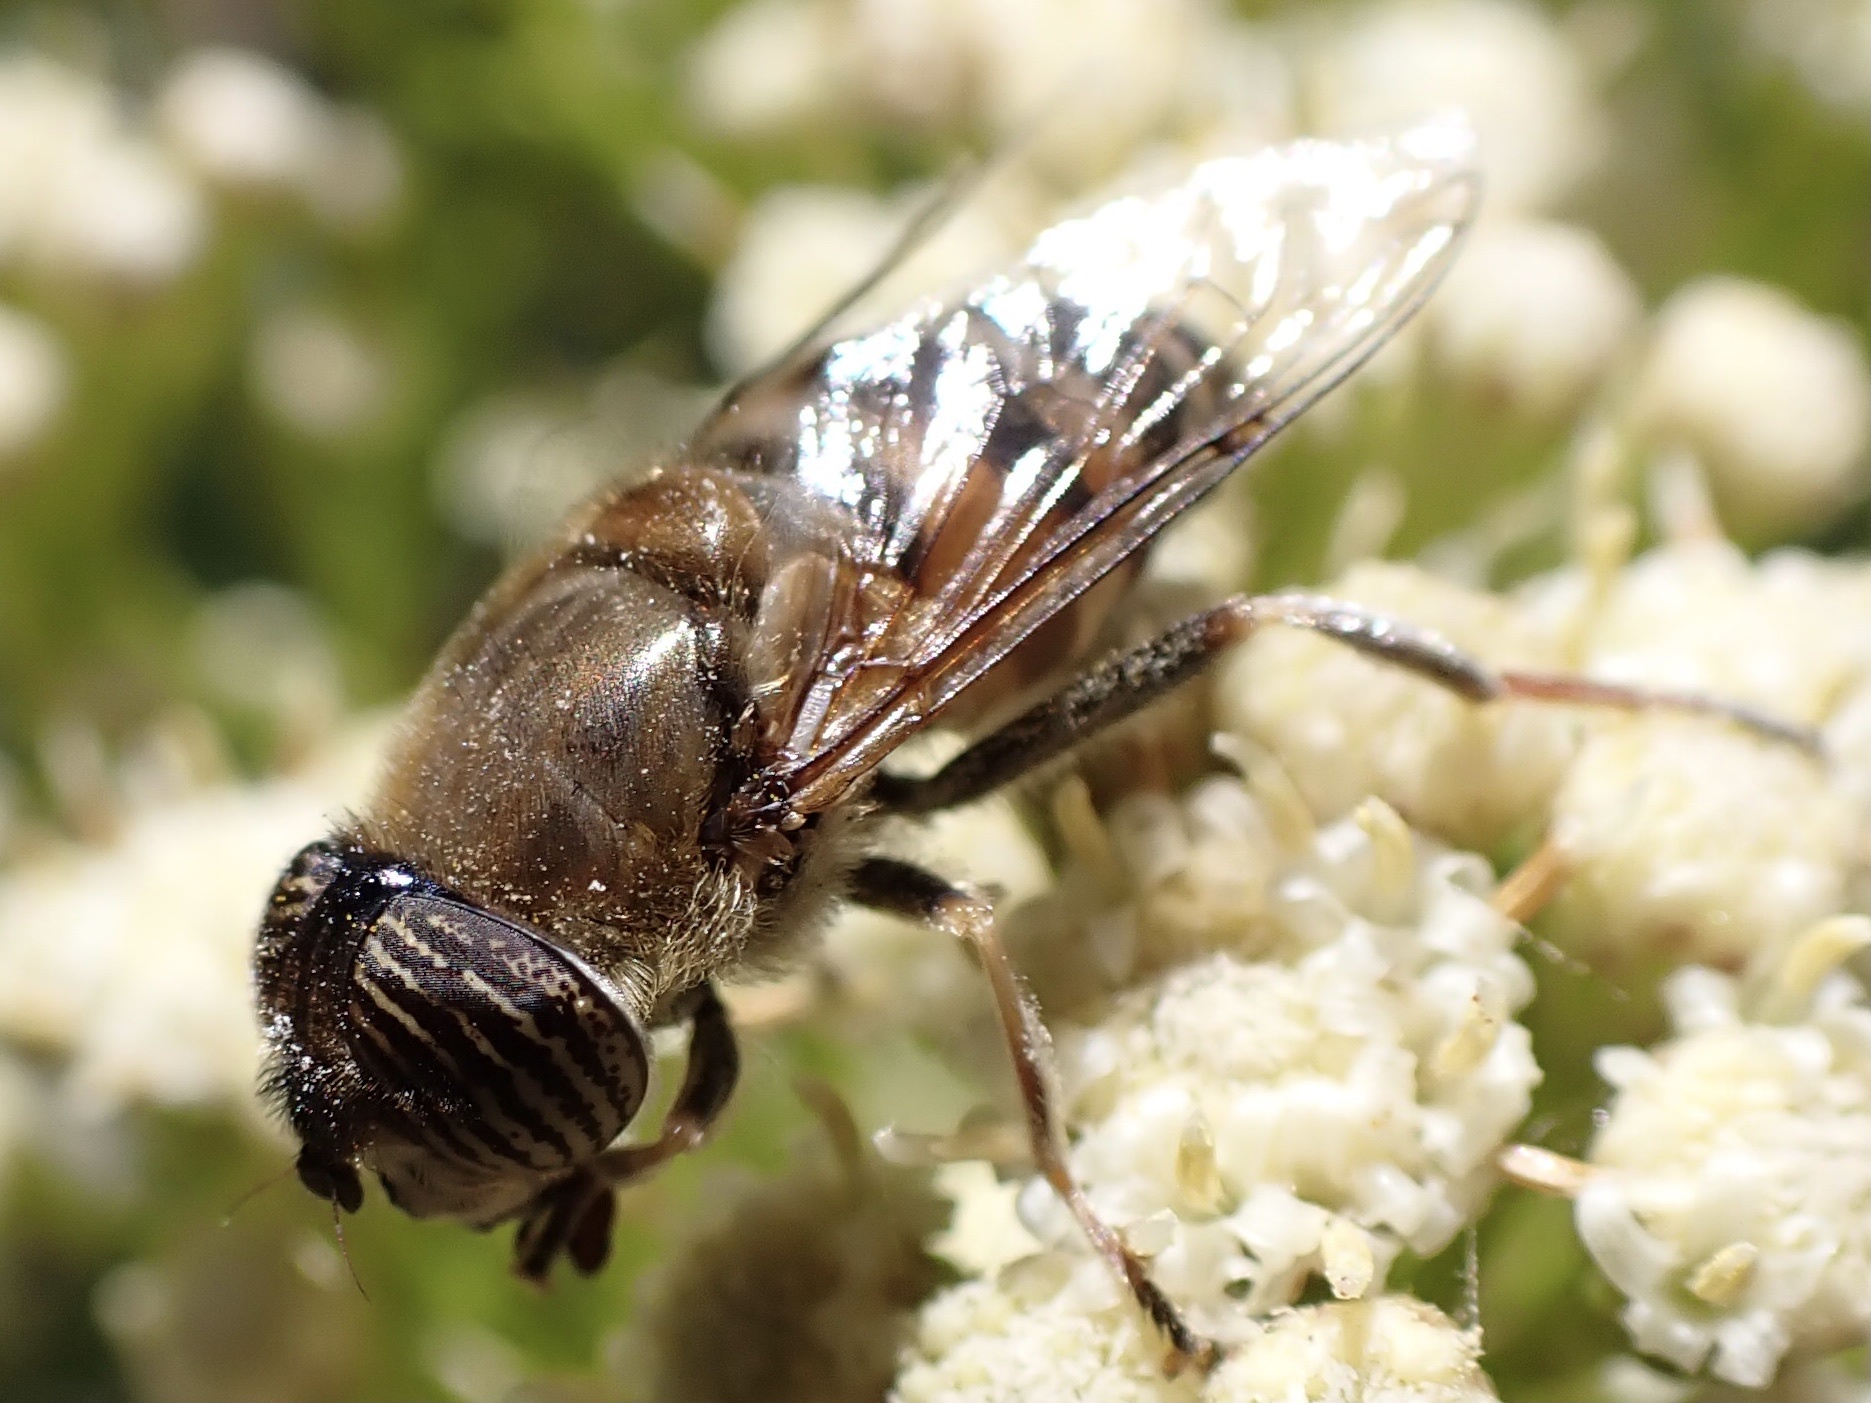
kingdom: Animalia
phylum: Arthropoda
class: Insecta
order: Diptera
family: Syrphidae
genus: Eristalinus
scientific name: Eristalinus taeniops
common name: Syrphid fly
